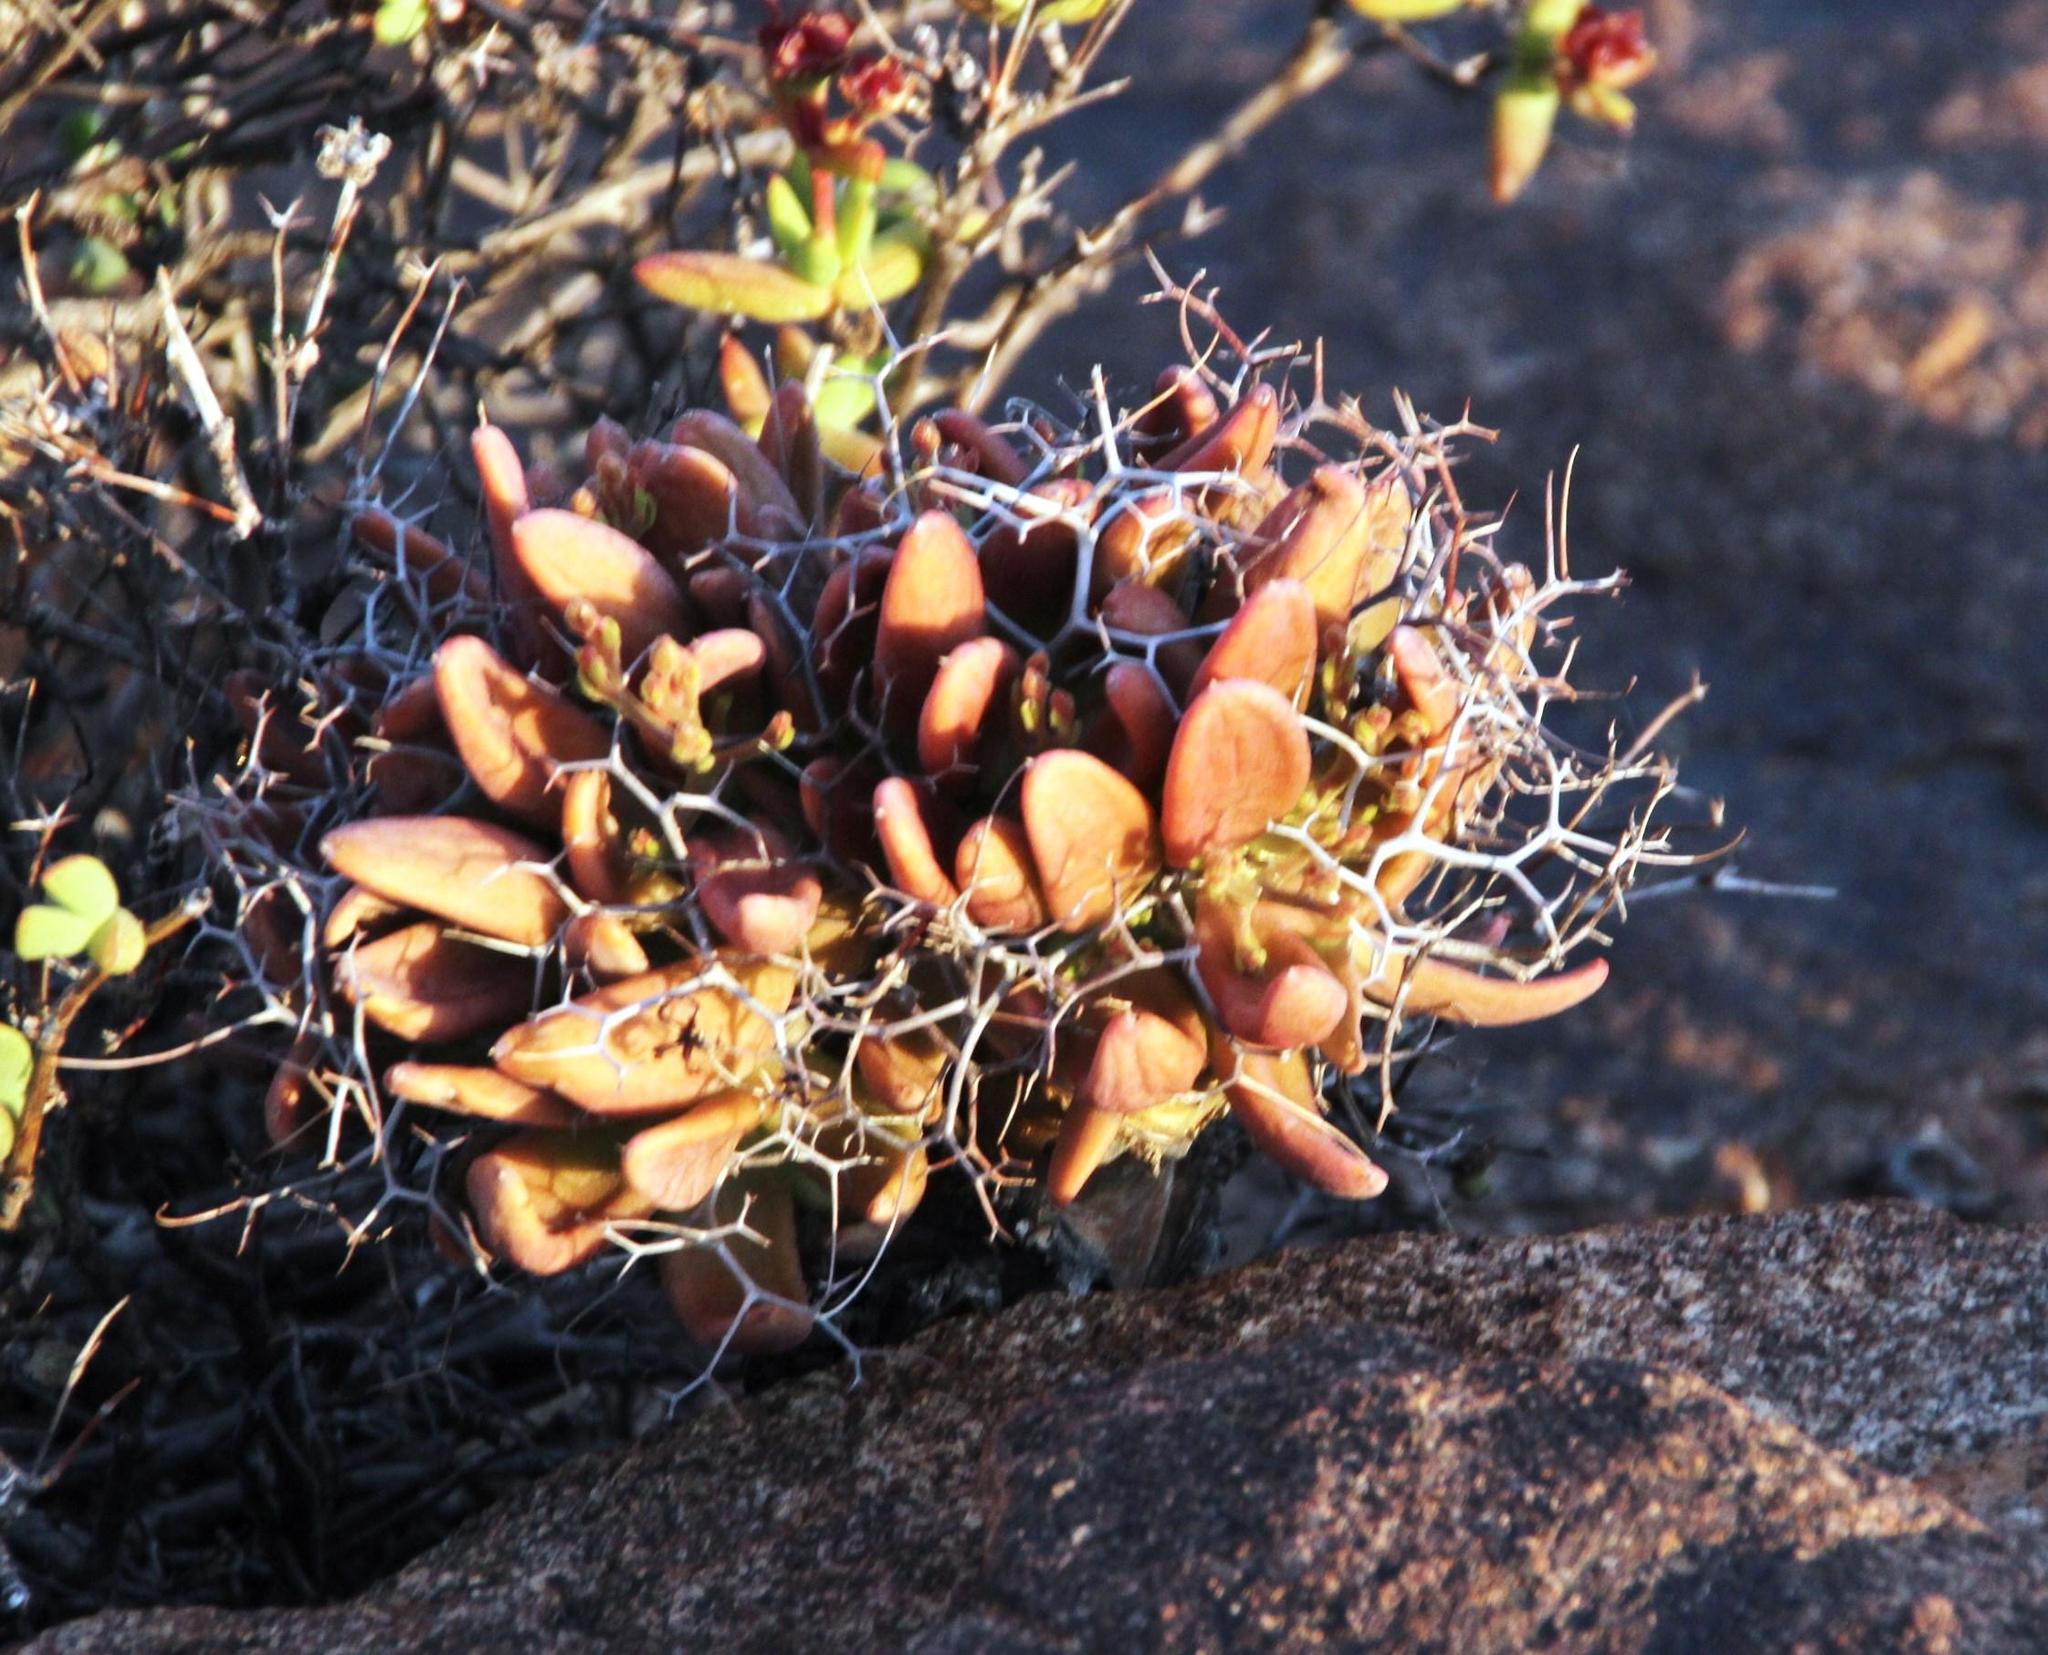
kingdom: Plantae
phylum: Tracheophyta
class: Magnoliopsida
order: Saxifragales
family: Crassulaceae
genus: Tylecodon
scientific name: Tylecodon reticulatus
